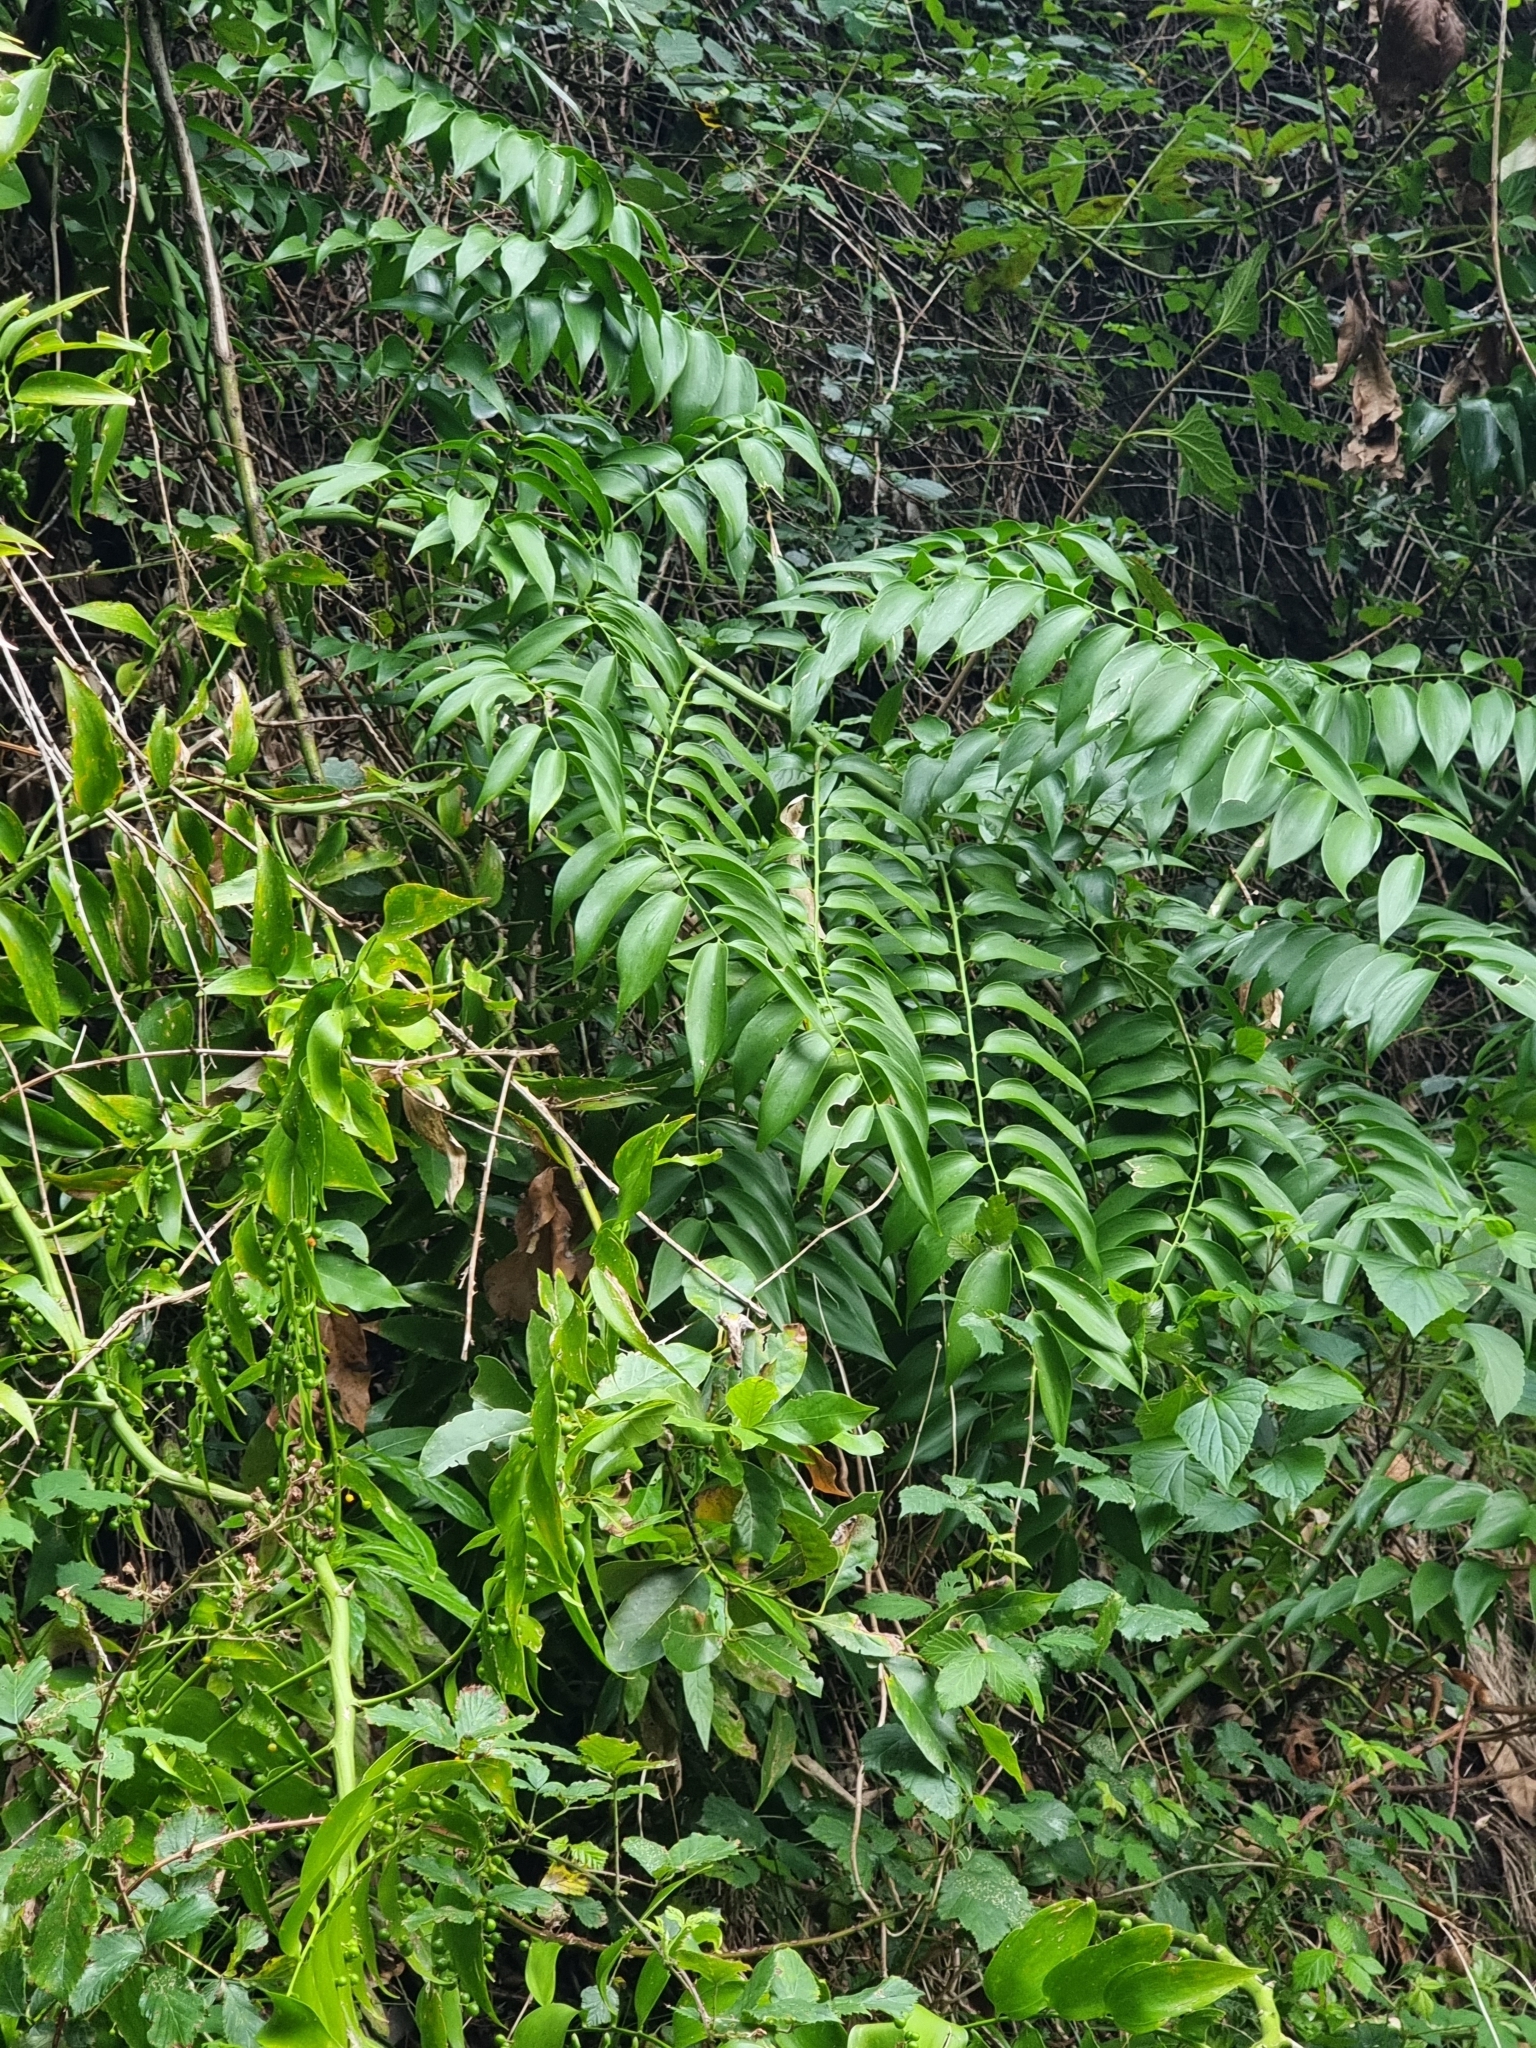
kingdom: Plantae
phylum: Tracheophyta
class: Liliopsida
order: Asparagales
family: Asparagaceae
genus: Semele
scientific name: Semele androgyna
